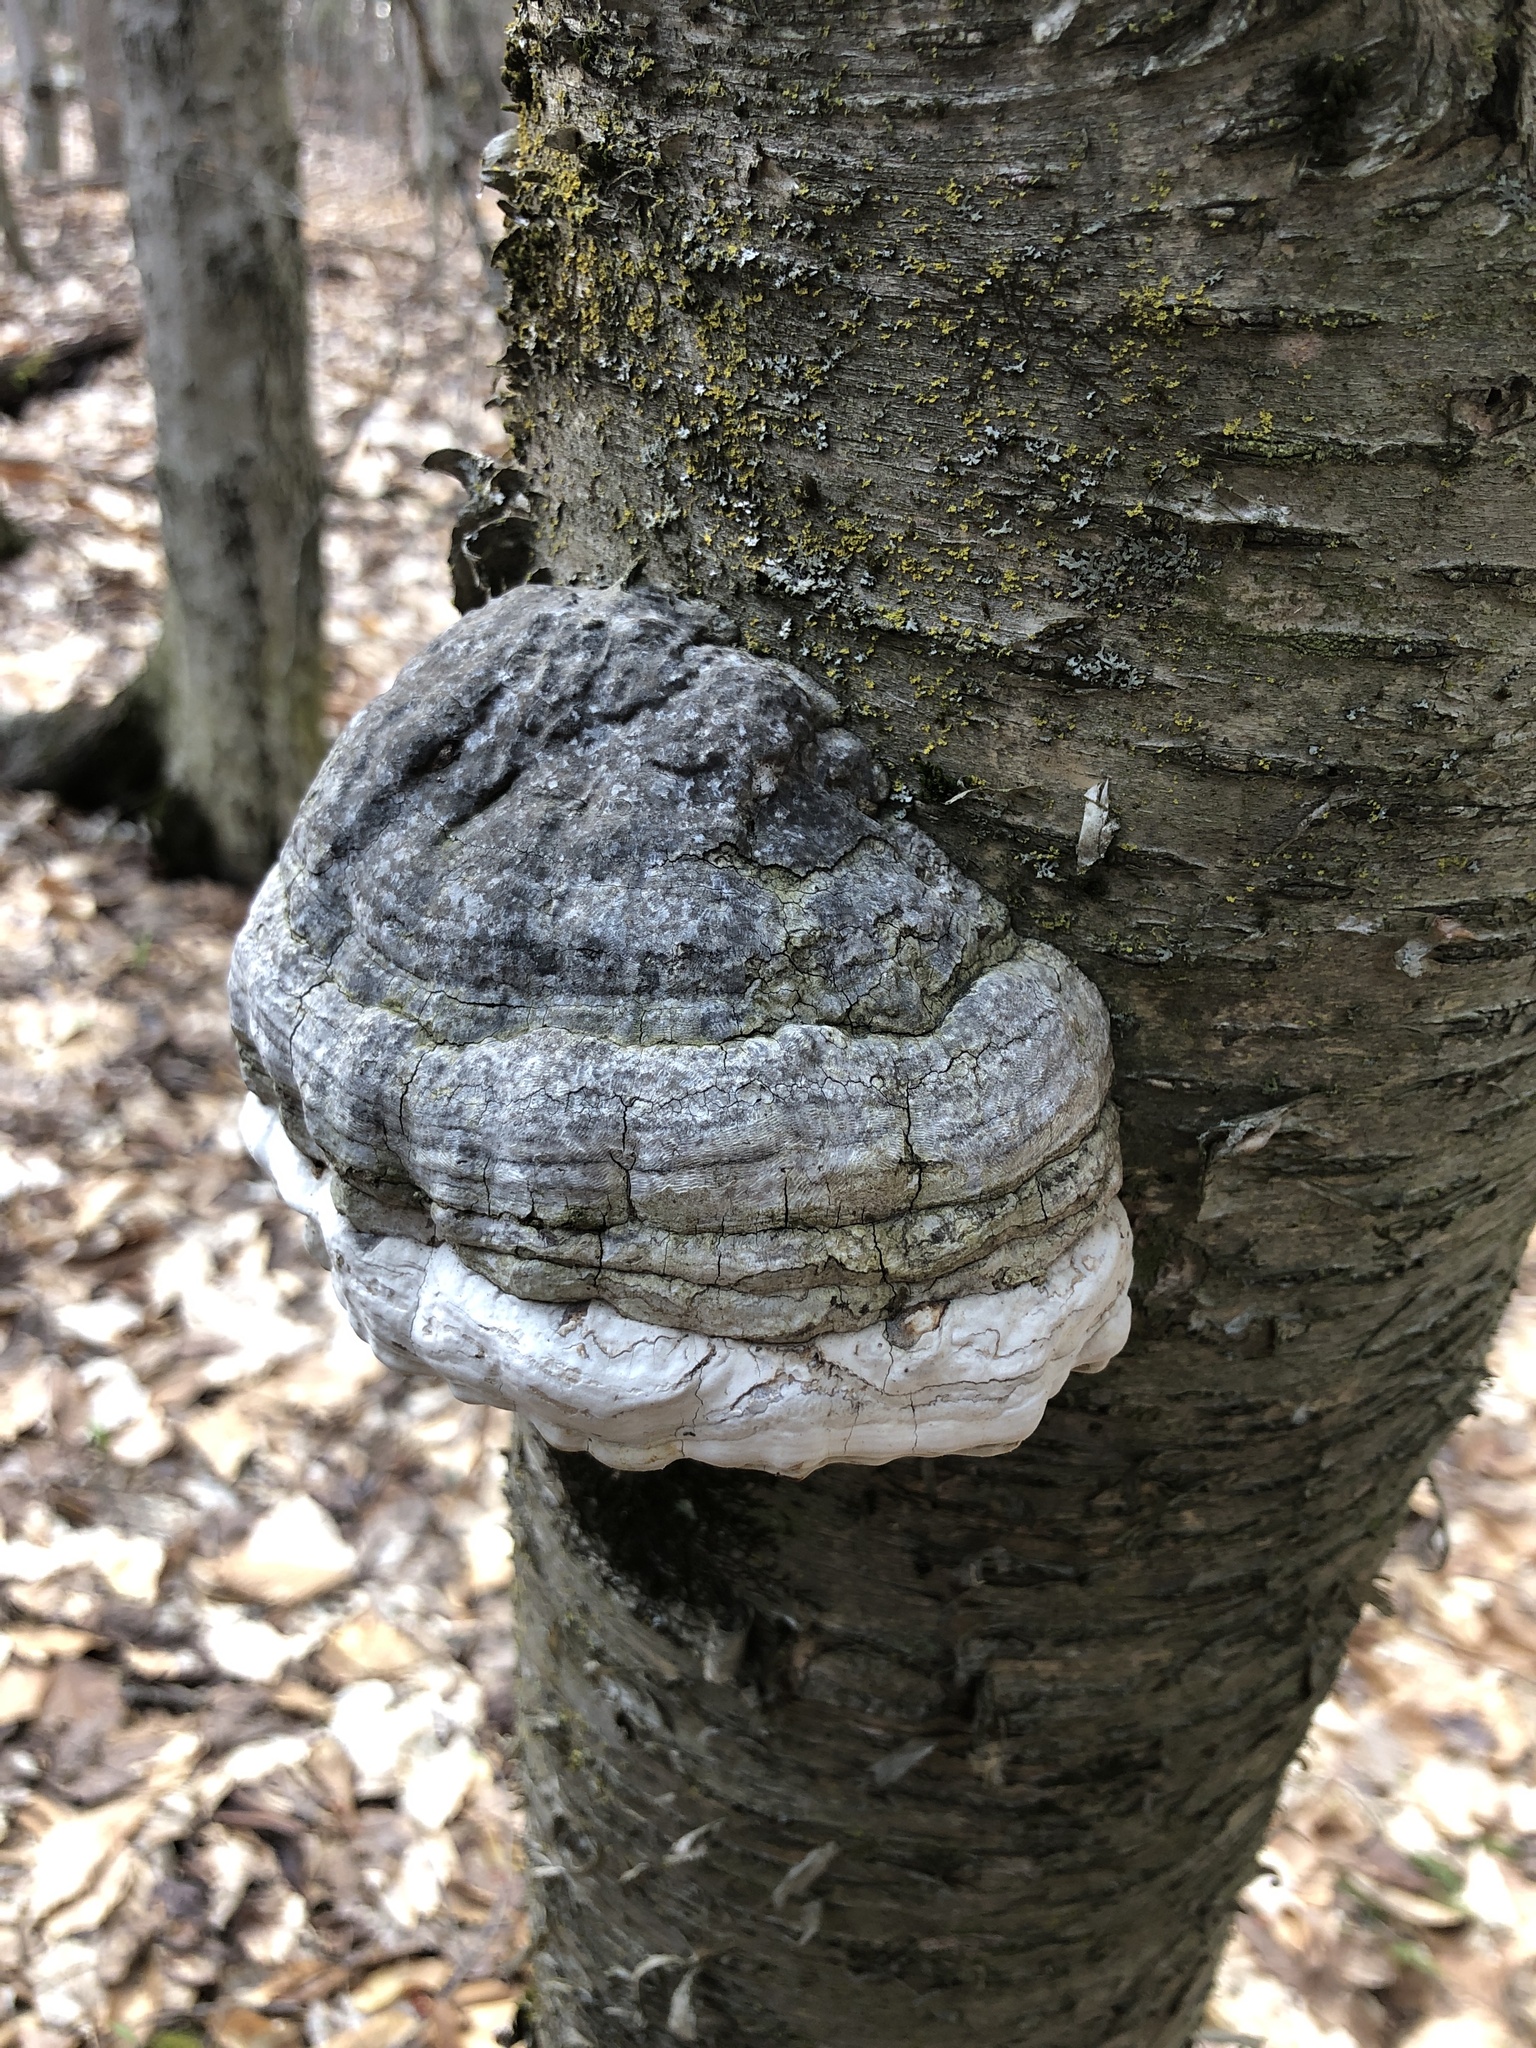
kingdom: Fungi
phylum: Basidiomycota
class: Agaricomycetes
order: Polyporales
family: Polyporaceae
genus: Fomes
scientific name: Fomes fomentarius
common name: Hoof fungus
